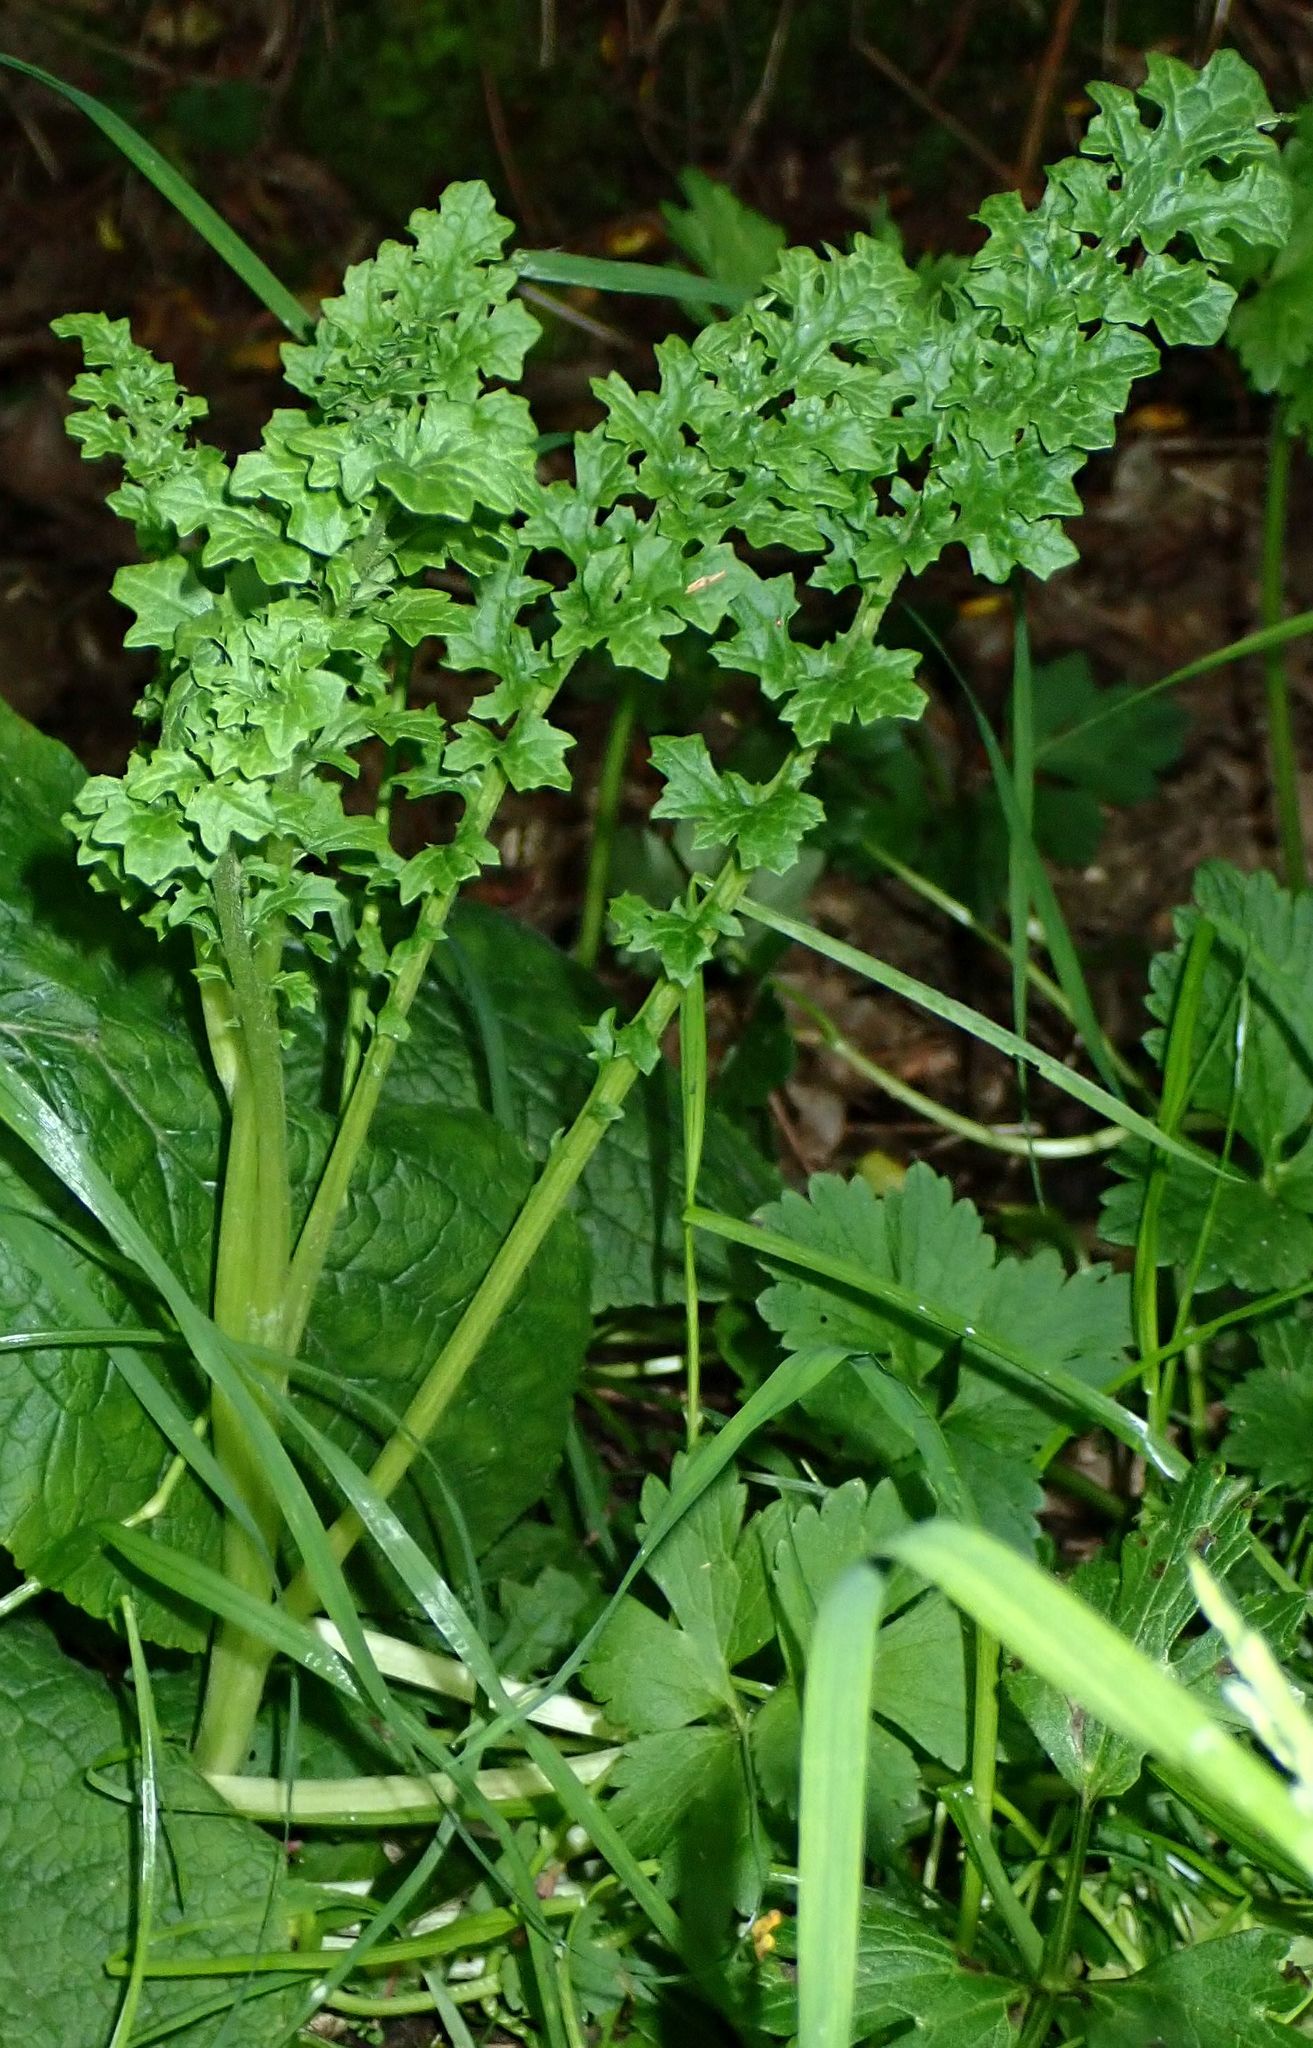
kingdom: Plantae
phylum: Tracheophyta
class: Magnoliopsida
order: Asterales
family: Asteraceae
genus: Jacobaea
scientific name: Jacobaea vulgaris
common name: Stinking willie
